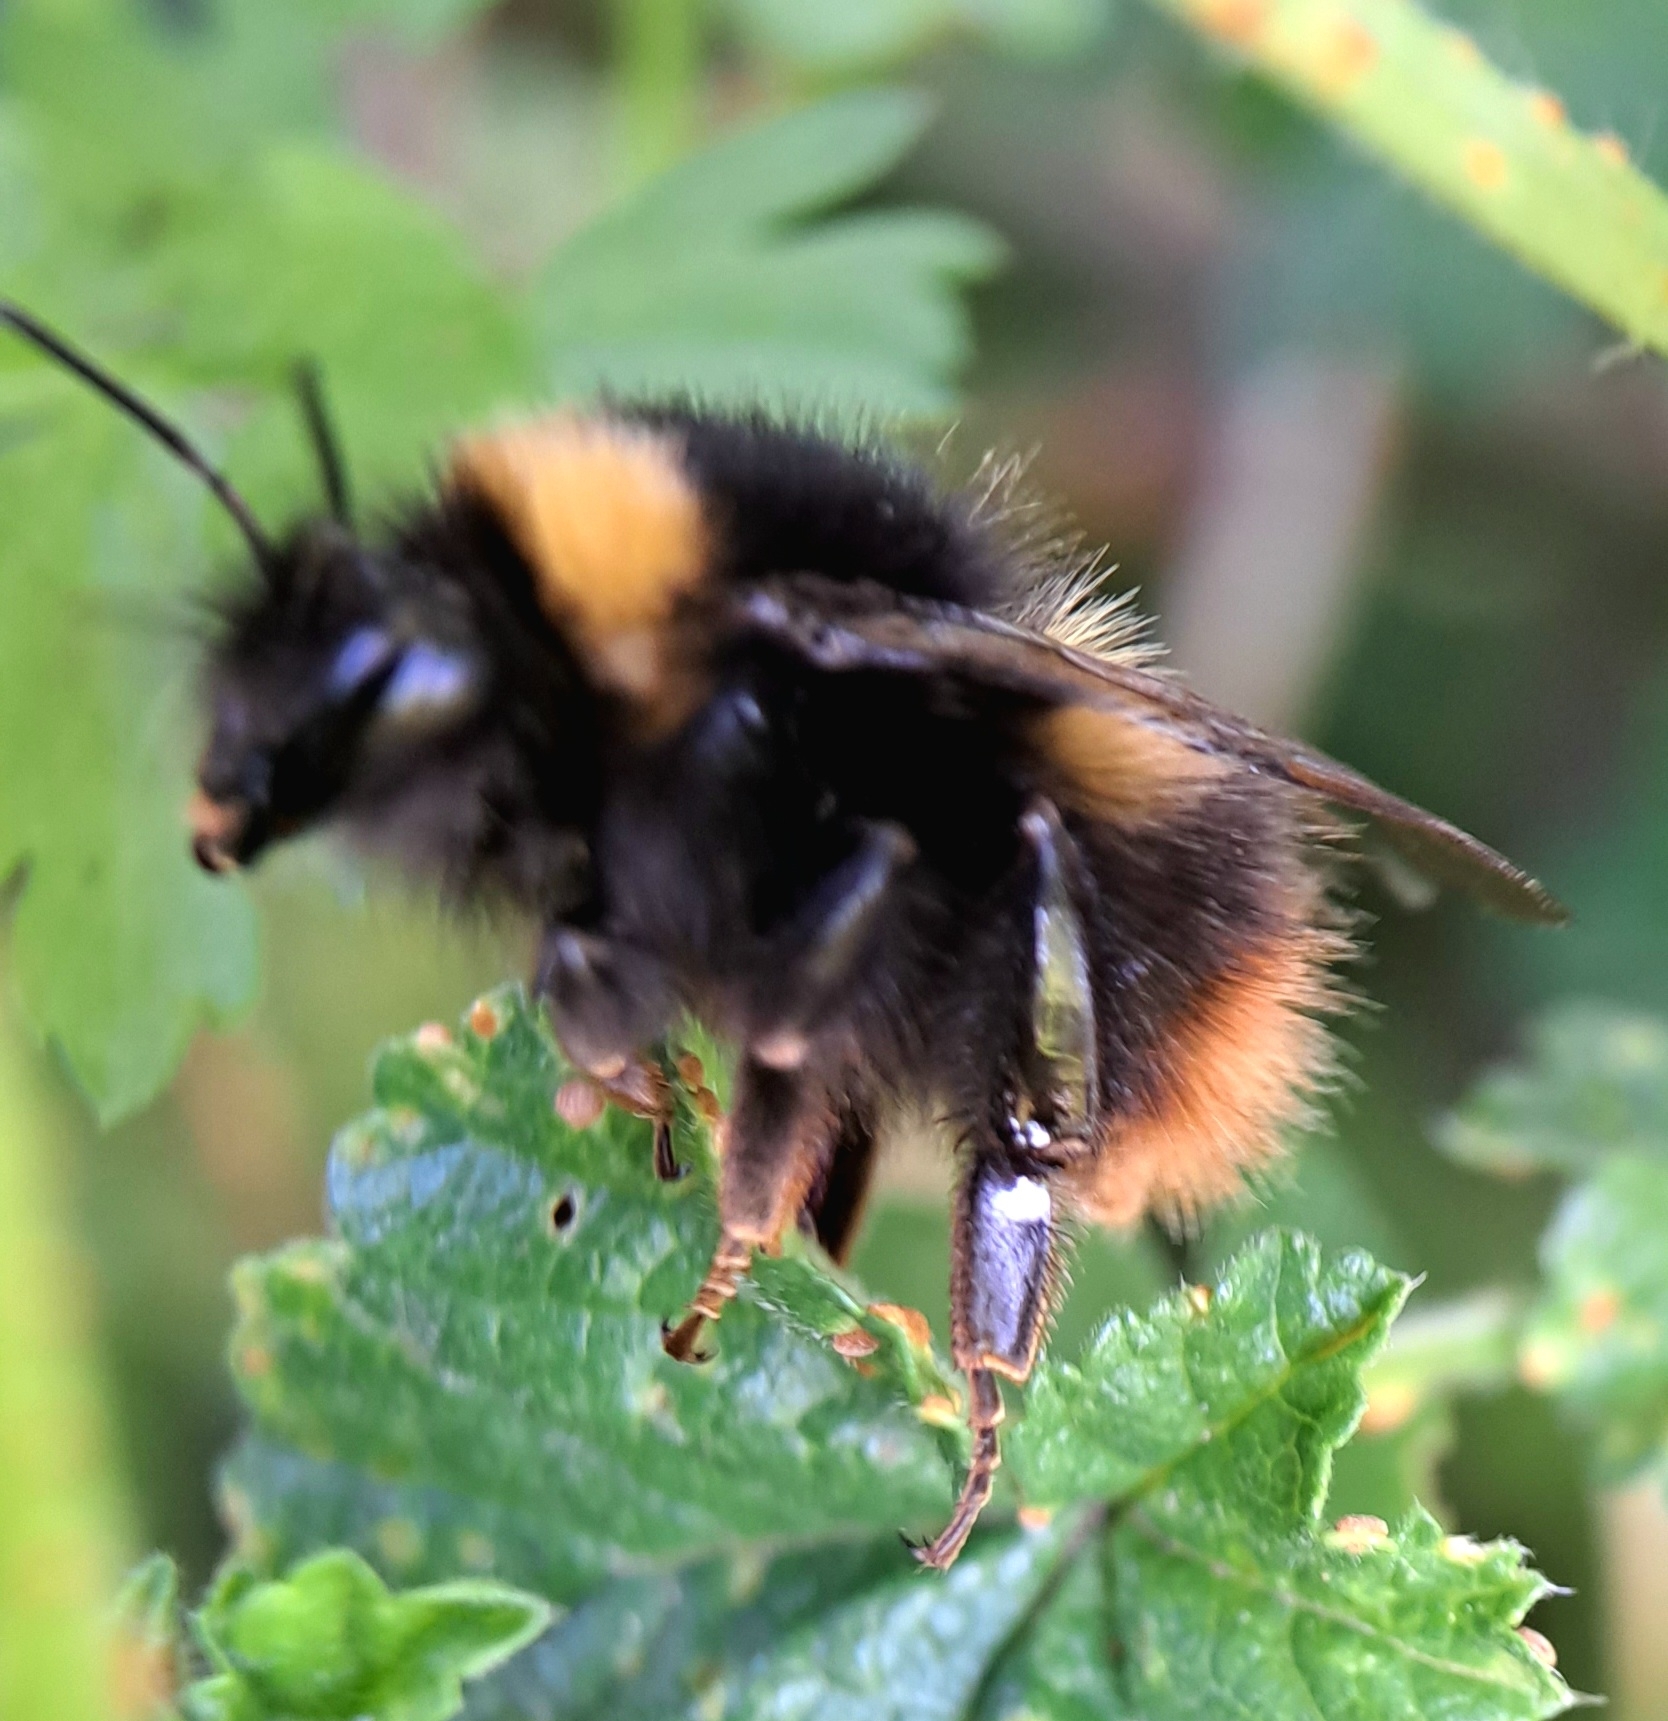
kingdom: Animalia
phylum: Arthropoda
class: Insecta
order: Hymenoptera
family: Apidae
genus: Bombus
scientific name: Bombus pratorum
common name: Early humble-bee
